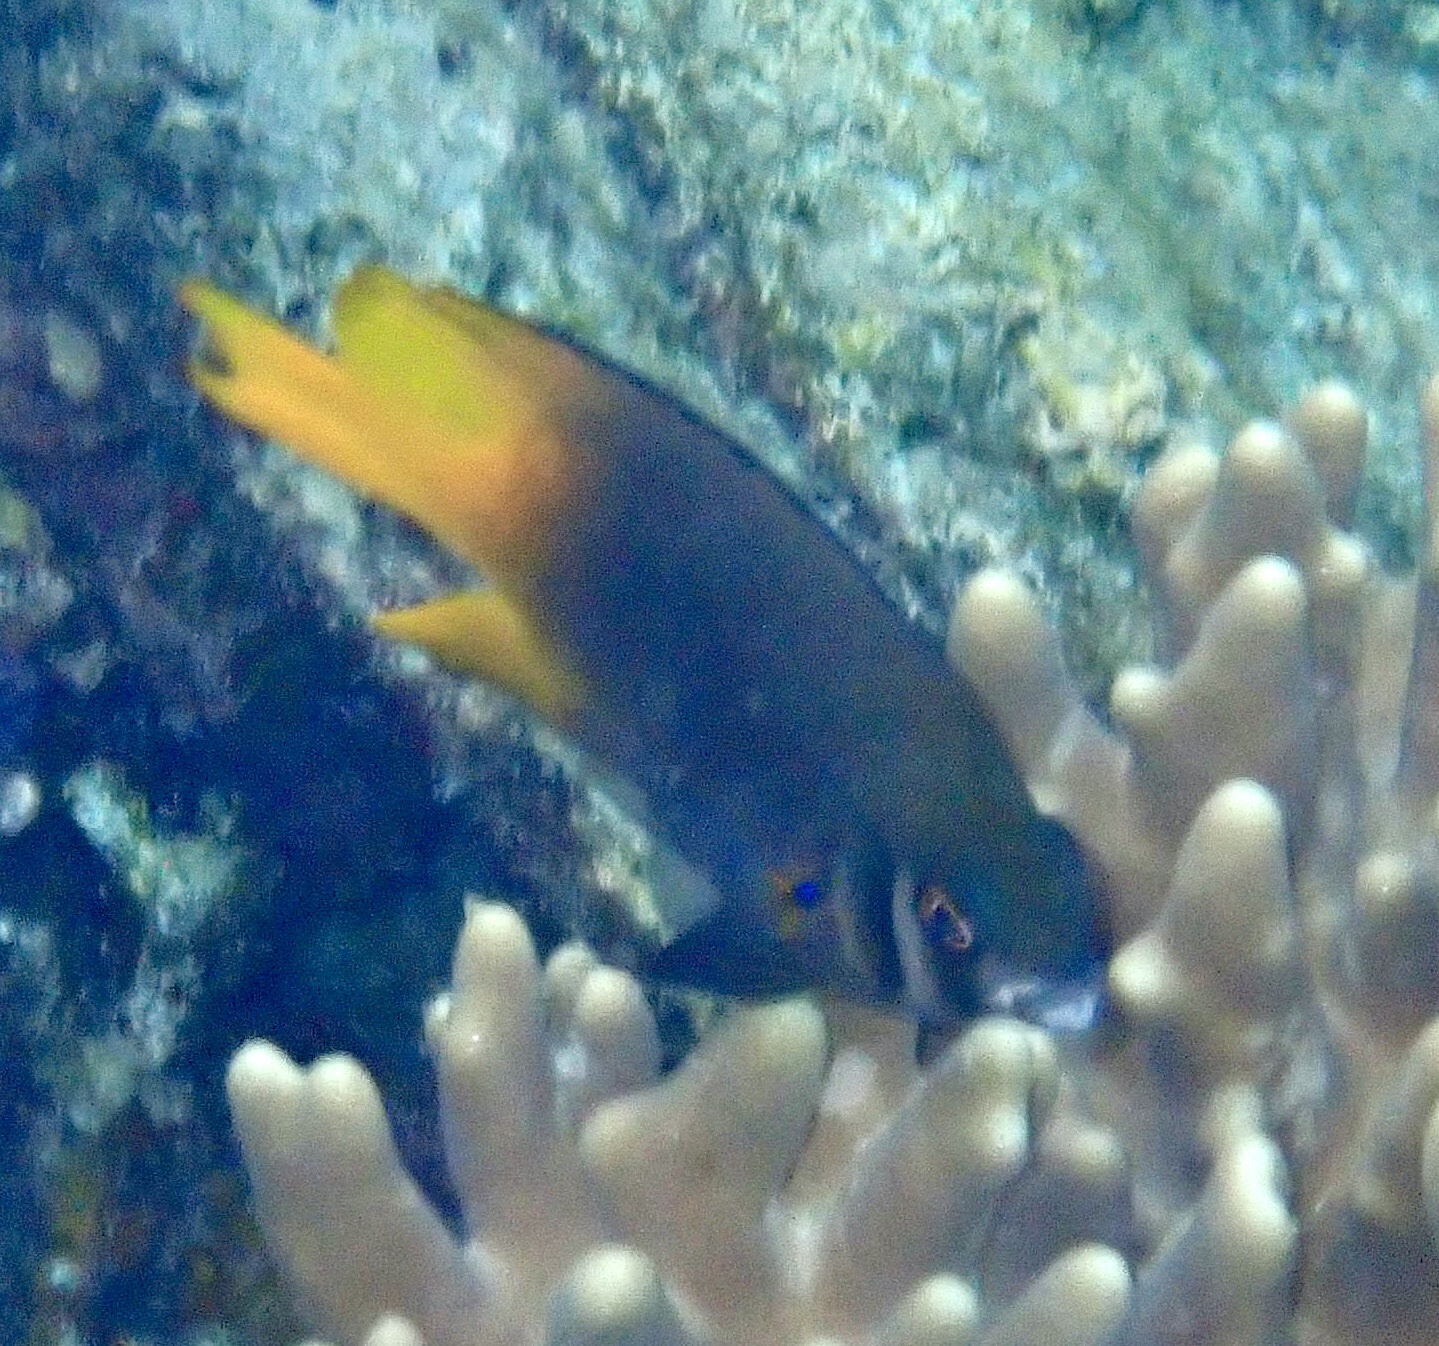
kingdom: Animalia
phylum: Chordata
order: Perciformes
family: Pomacentridae
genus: Neoglyphidodon
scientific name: Neoglyphidodon nigroris
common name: Behn's damsel
